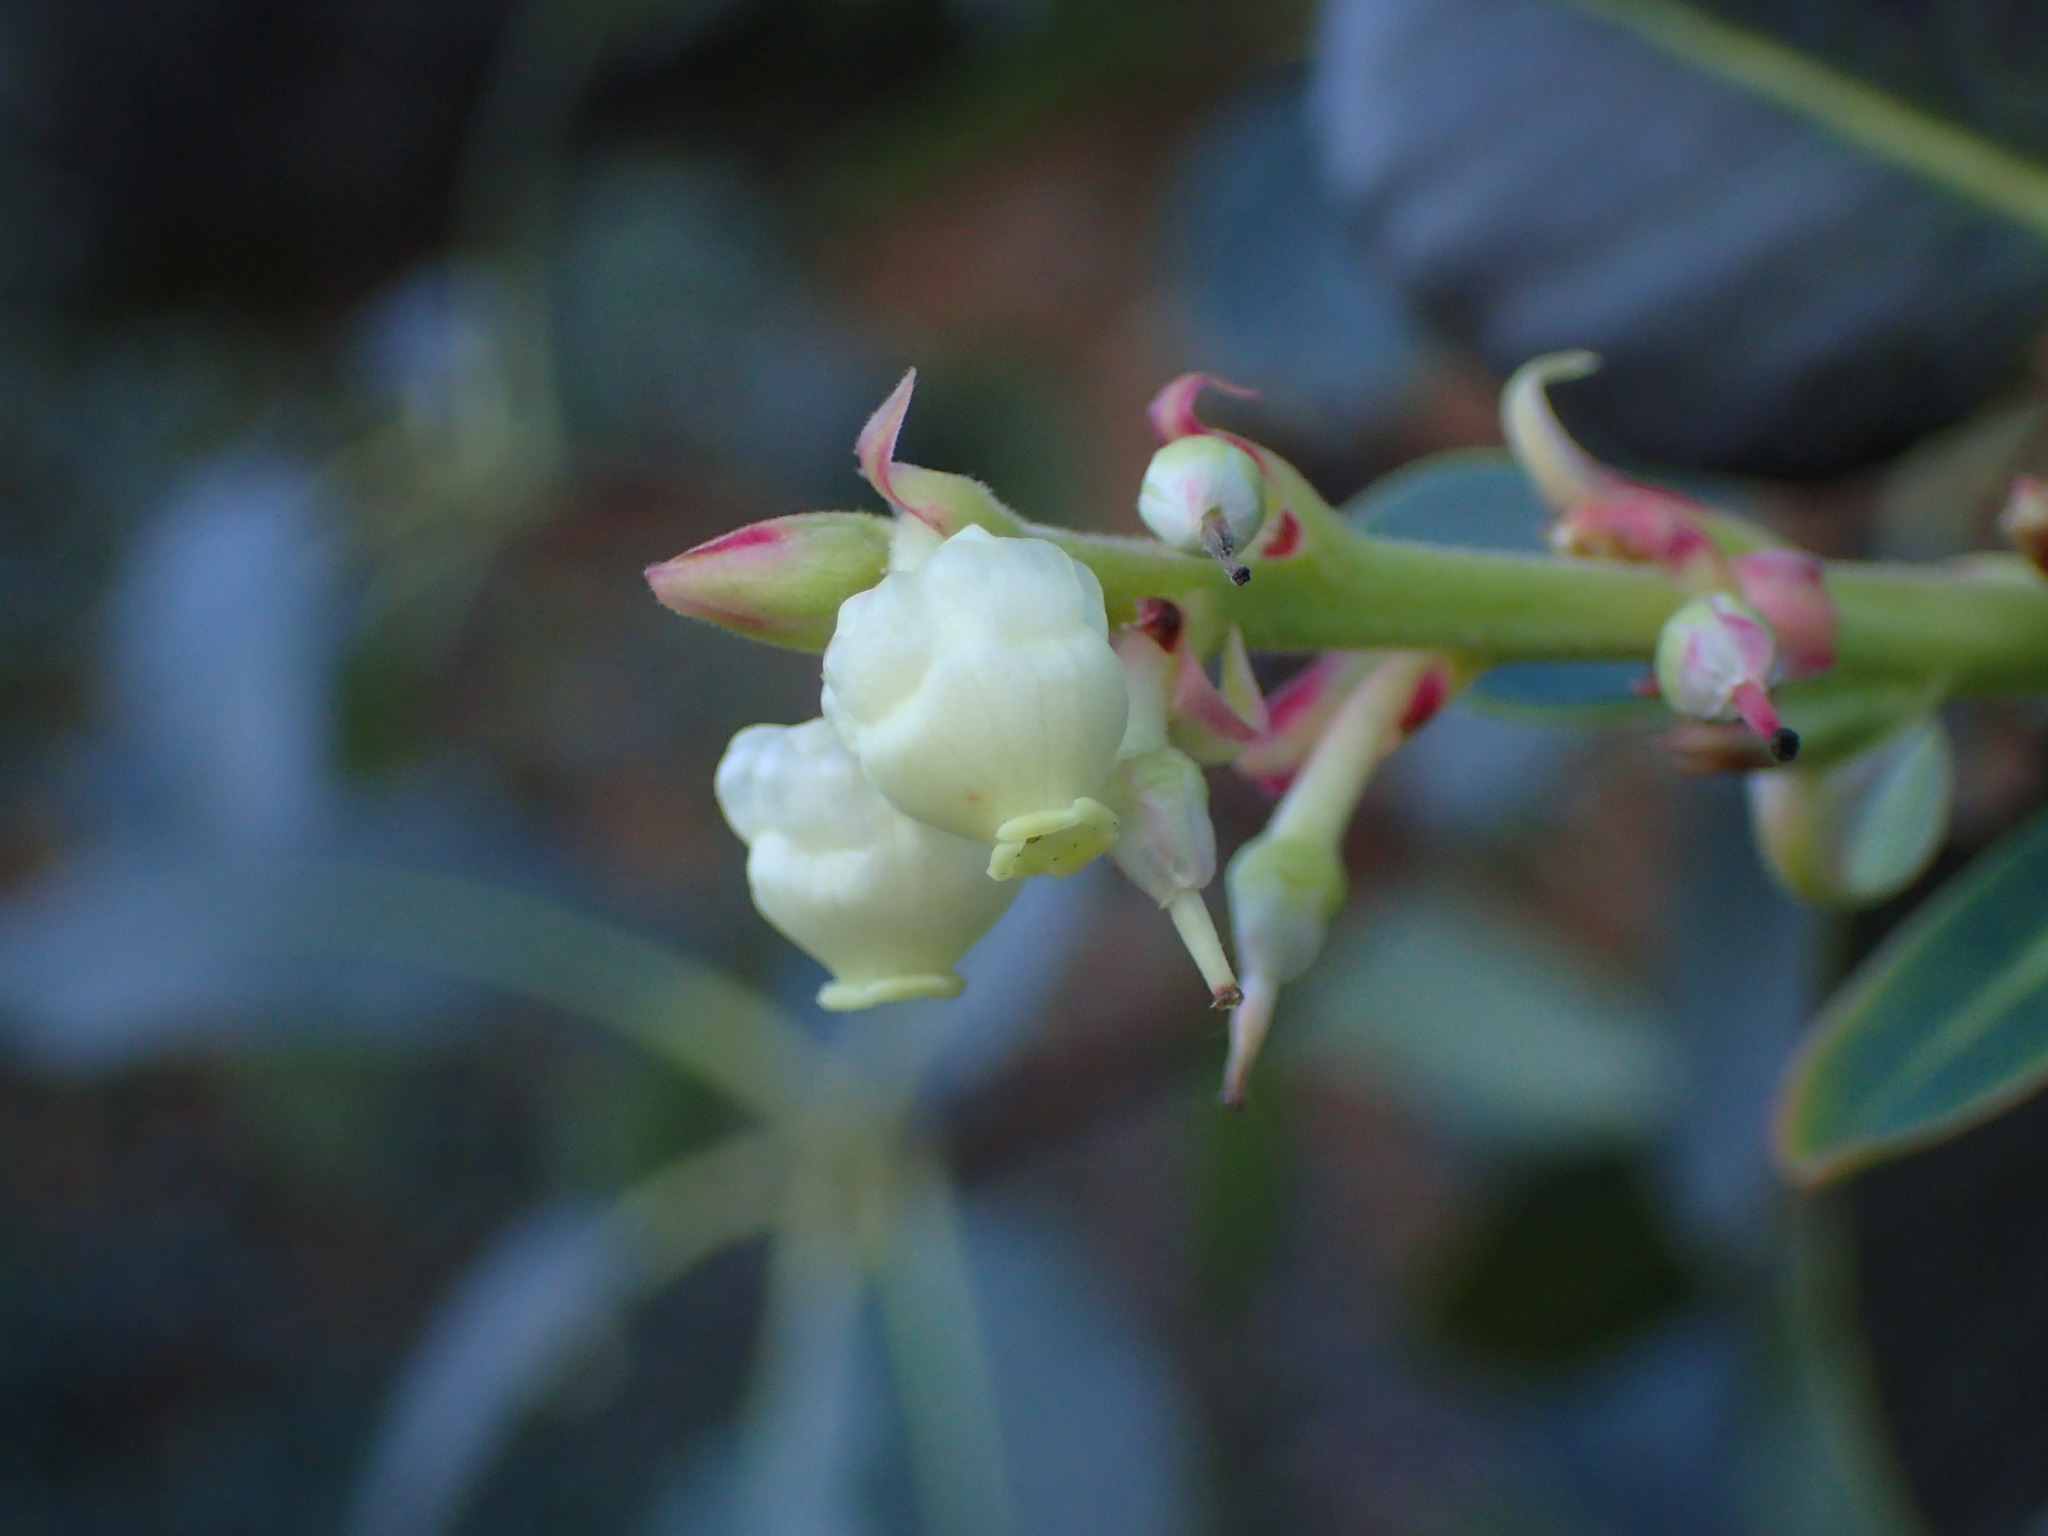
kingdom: Plantae
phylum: Tracheophyta
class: Magnoliopsida
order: Ericales
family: Ericaceae
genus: Arbutus
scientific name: Arbutus menziesii
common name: Pacific madrone
